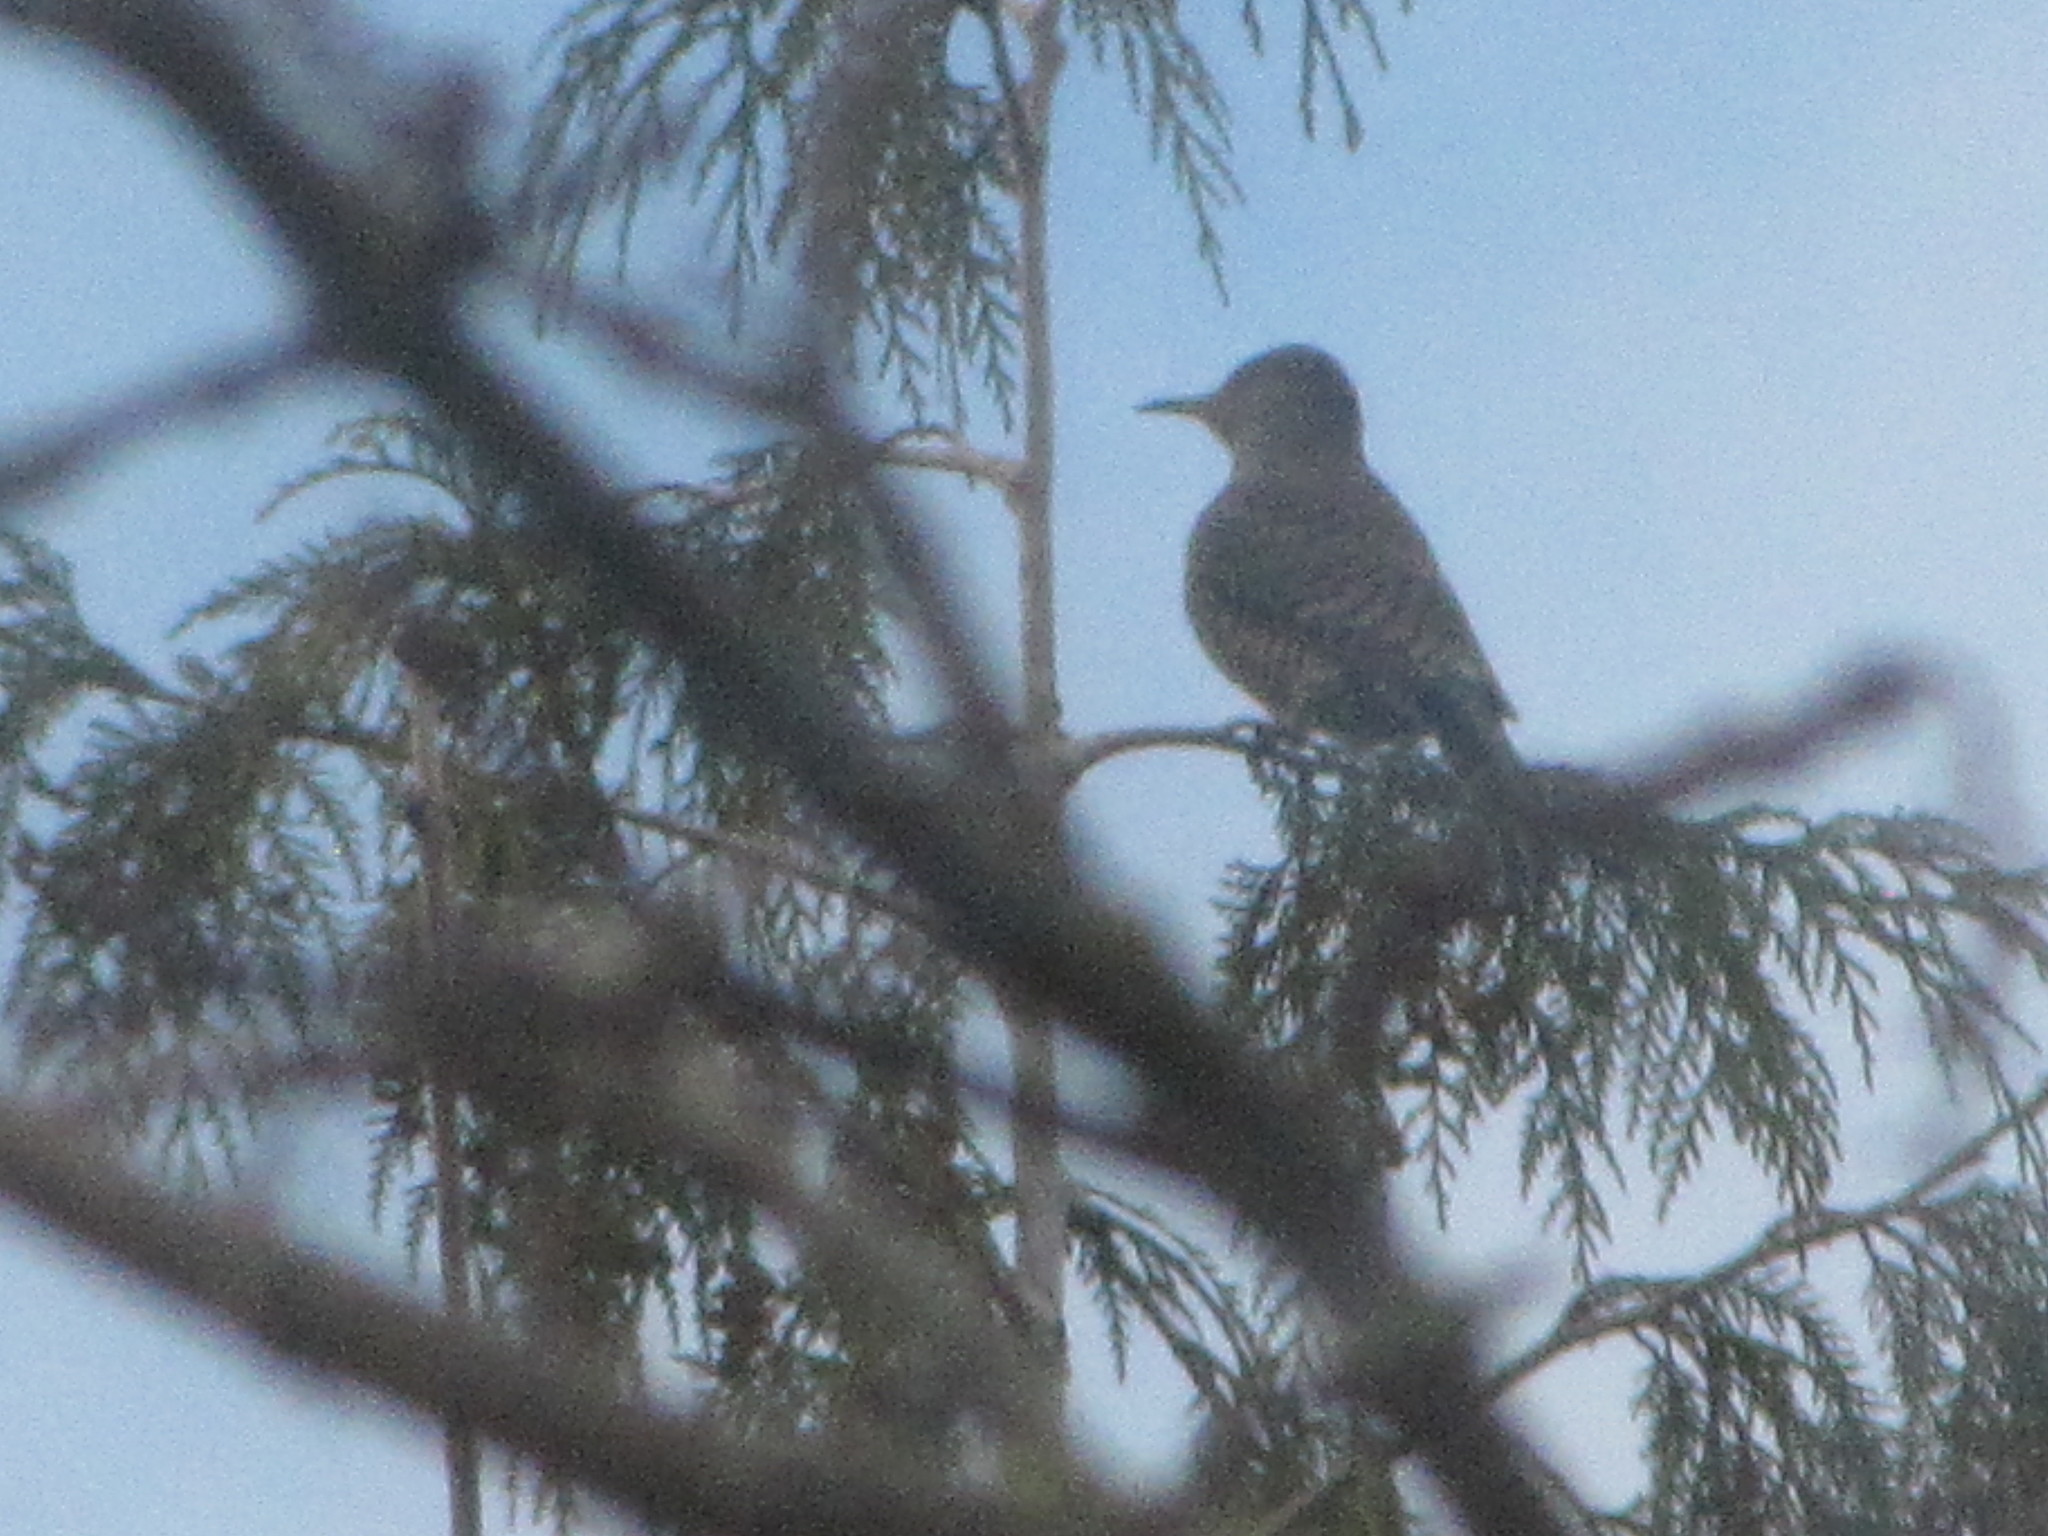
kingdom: Animalia
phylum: Chordata
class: Aves
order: Piciformes
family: Picidae
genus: Colaptes
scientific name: Colaptes auratus
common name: Northern flicker
